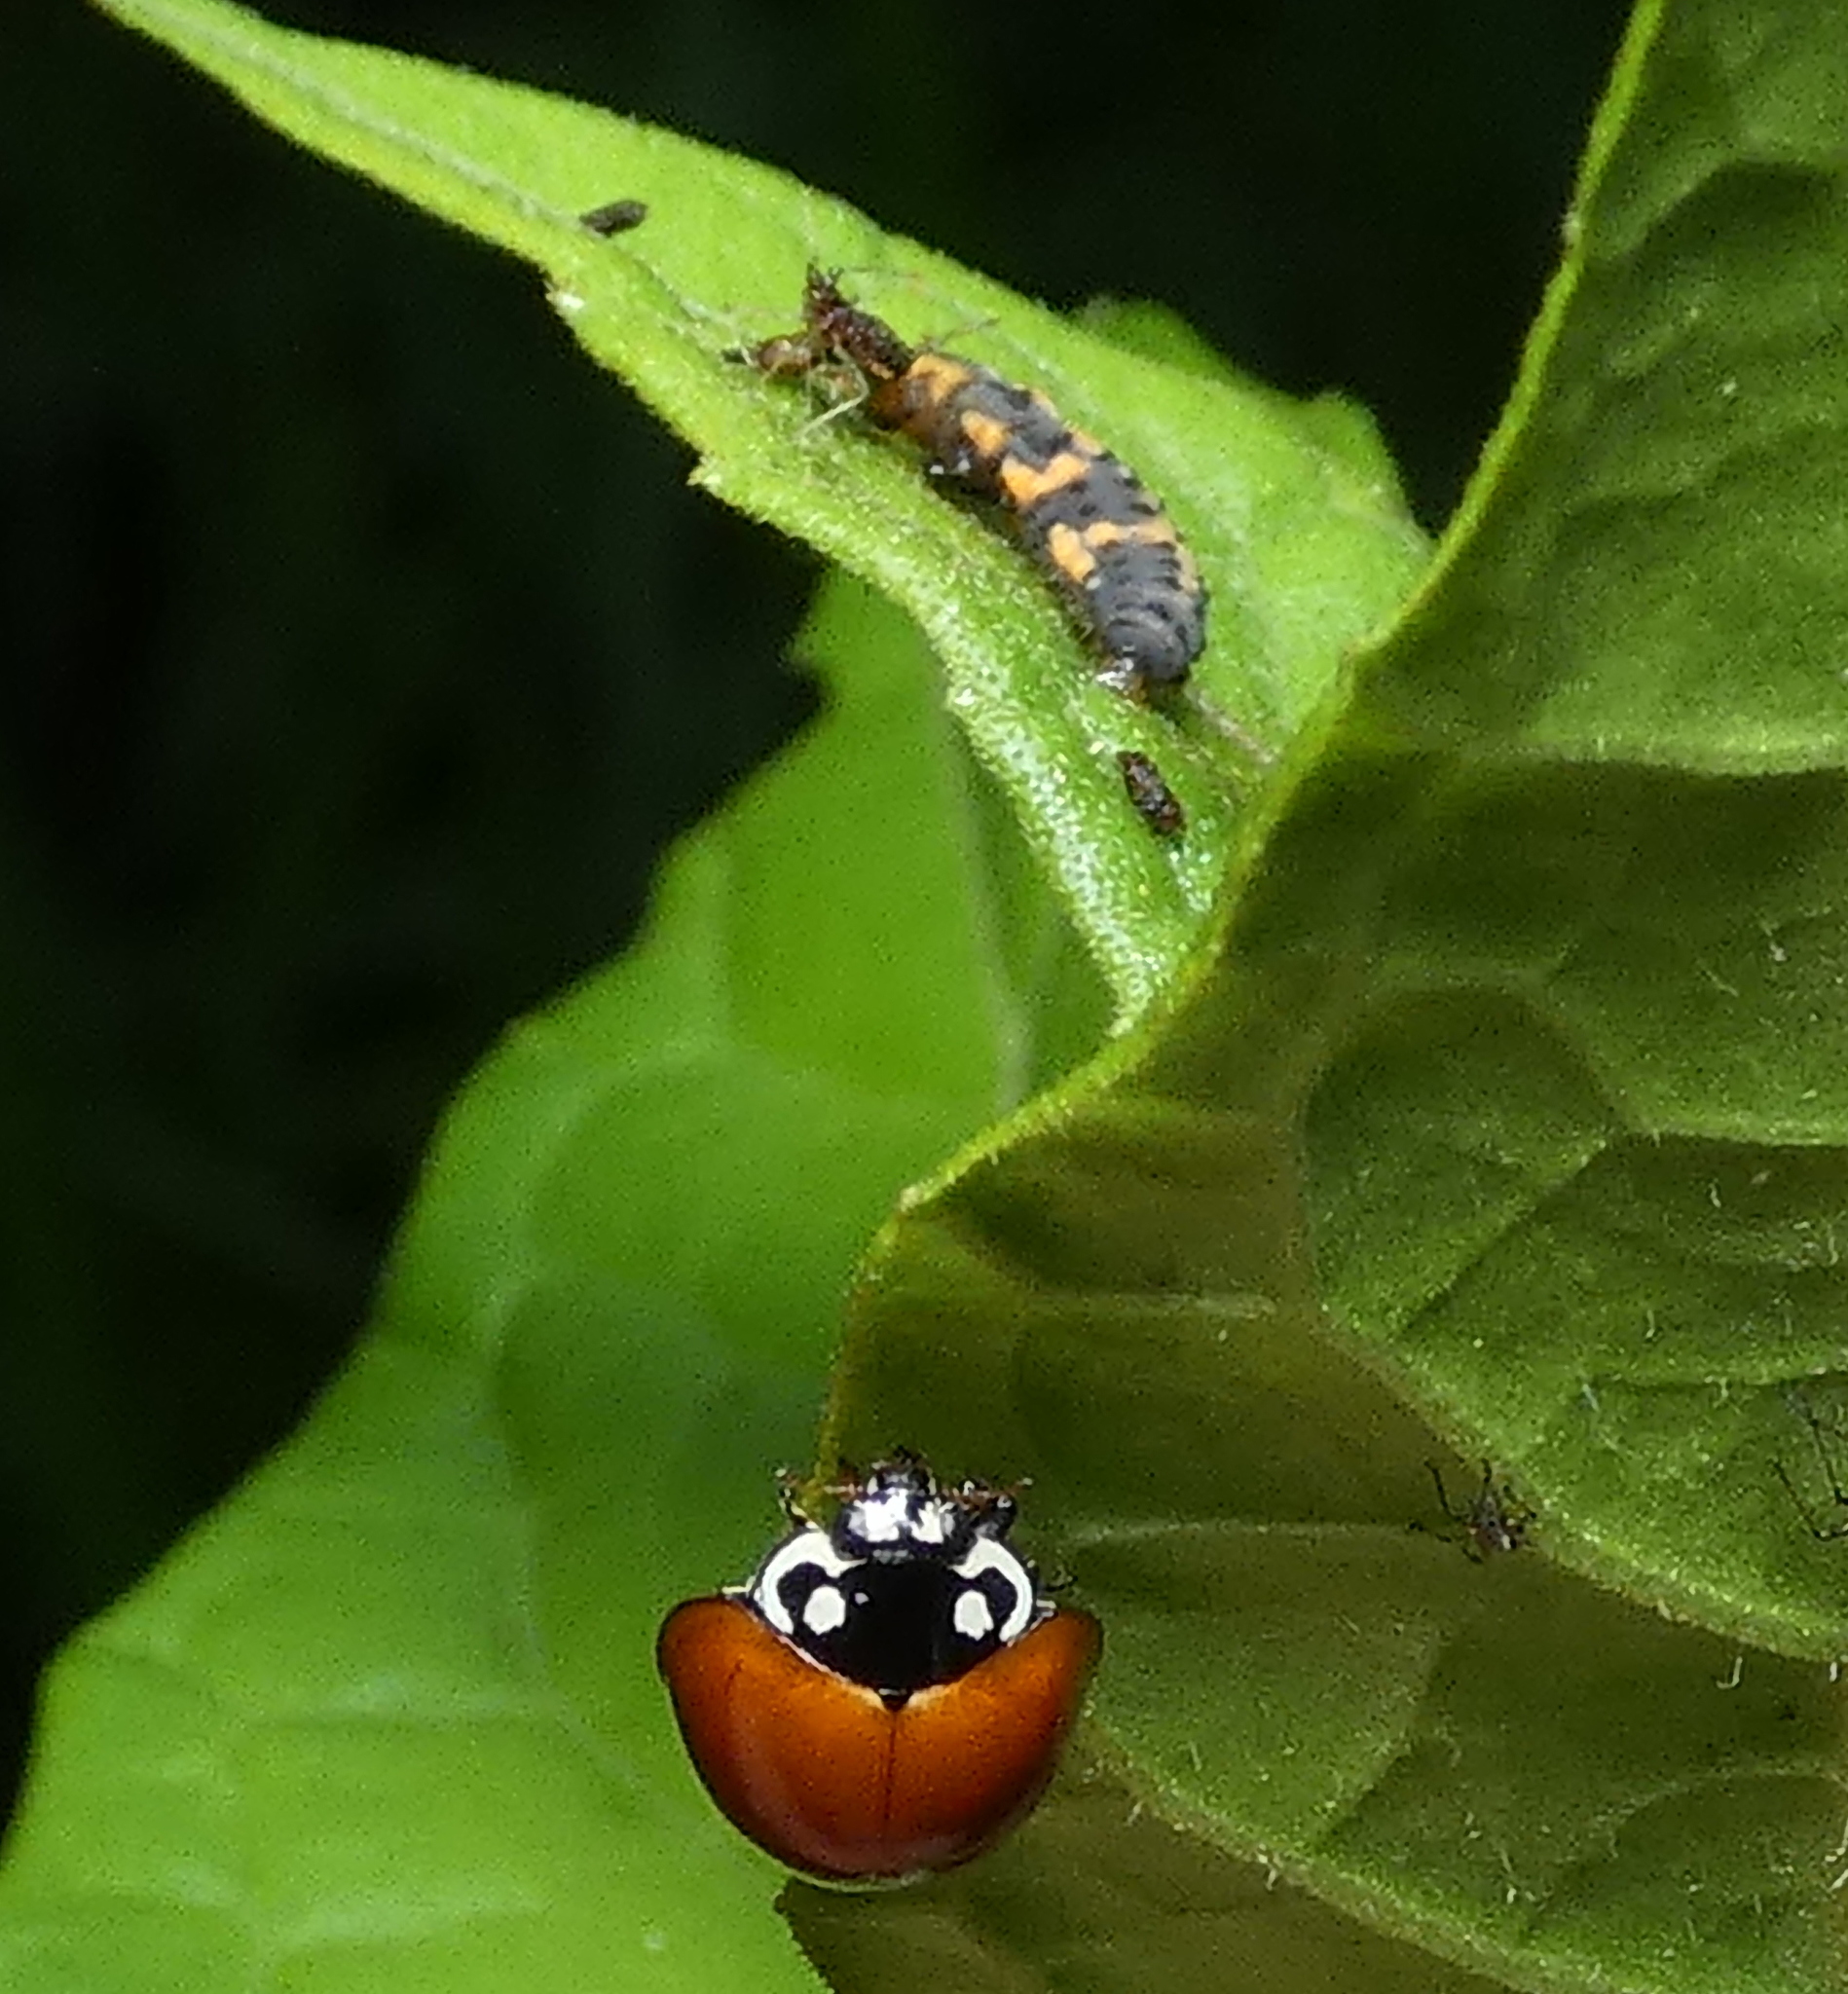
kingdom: Animalia
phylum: Arthropoda
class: Insecta
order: Coleoptera
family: Coccinellidae
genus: Cycloneda
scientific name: Cycloneda sanguinea
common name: Ladybird beetle
